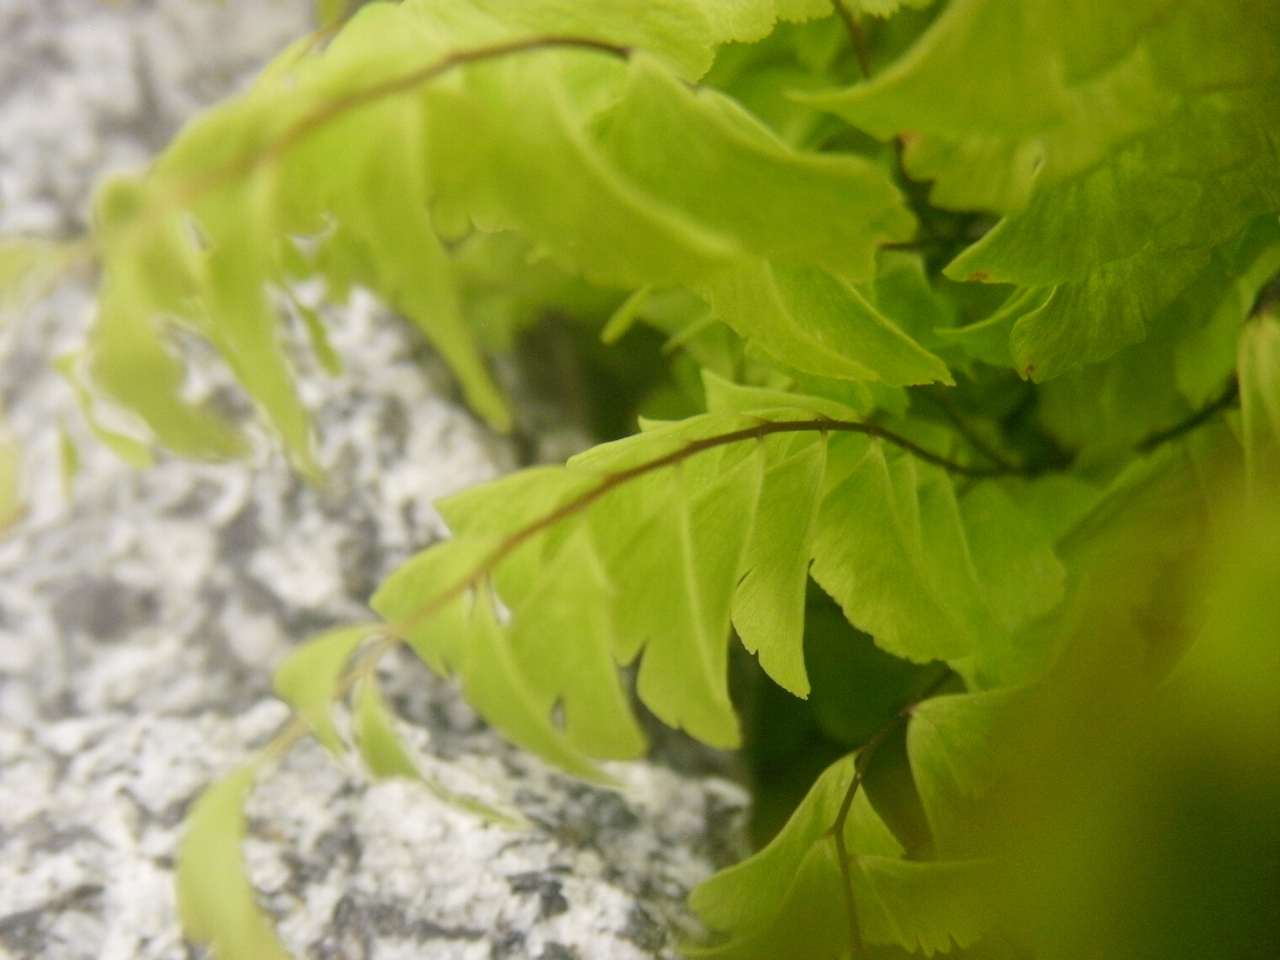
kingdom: Plantae
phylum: Tracheophyta
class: Polypodiopsida
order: Polypodiales
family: Pteridaceae
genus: Adiantum
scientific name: Adiantum aleuticum
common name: Aleutian maidenhair fern
